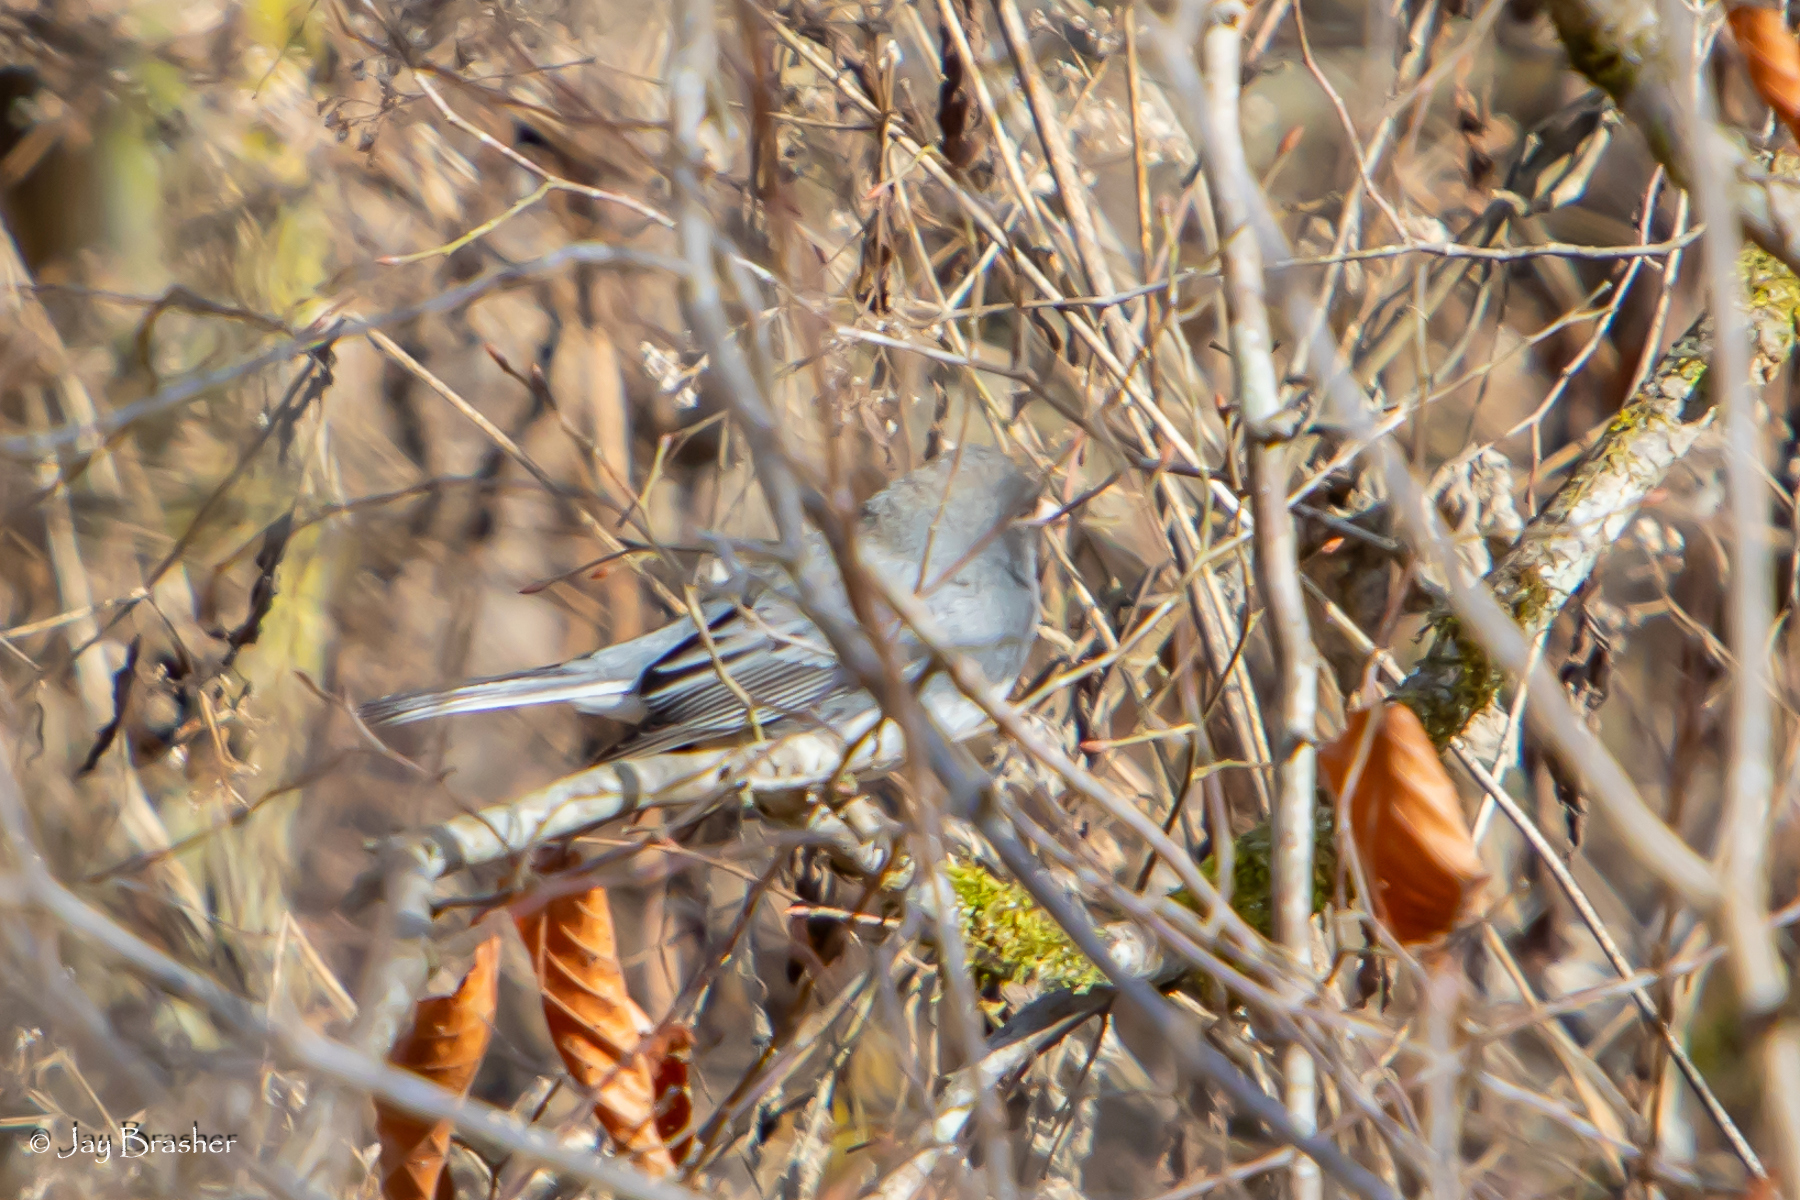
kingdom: Animalia
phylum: Chordata
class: Aves
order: Passeriformes
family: Passerellidae
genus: Junco
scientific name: Junco hyemalis
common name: Dark-eyed junco
